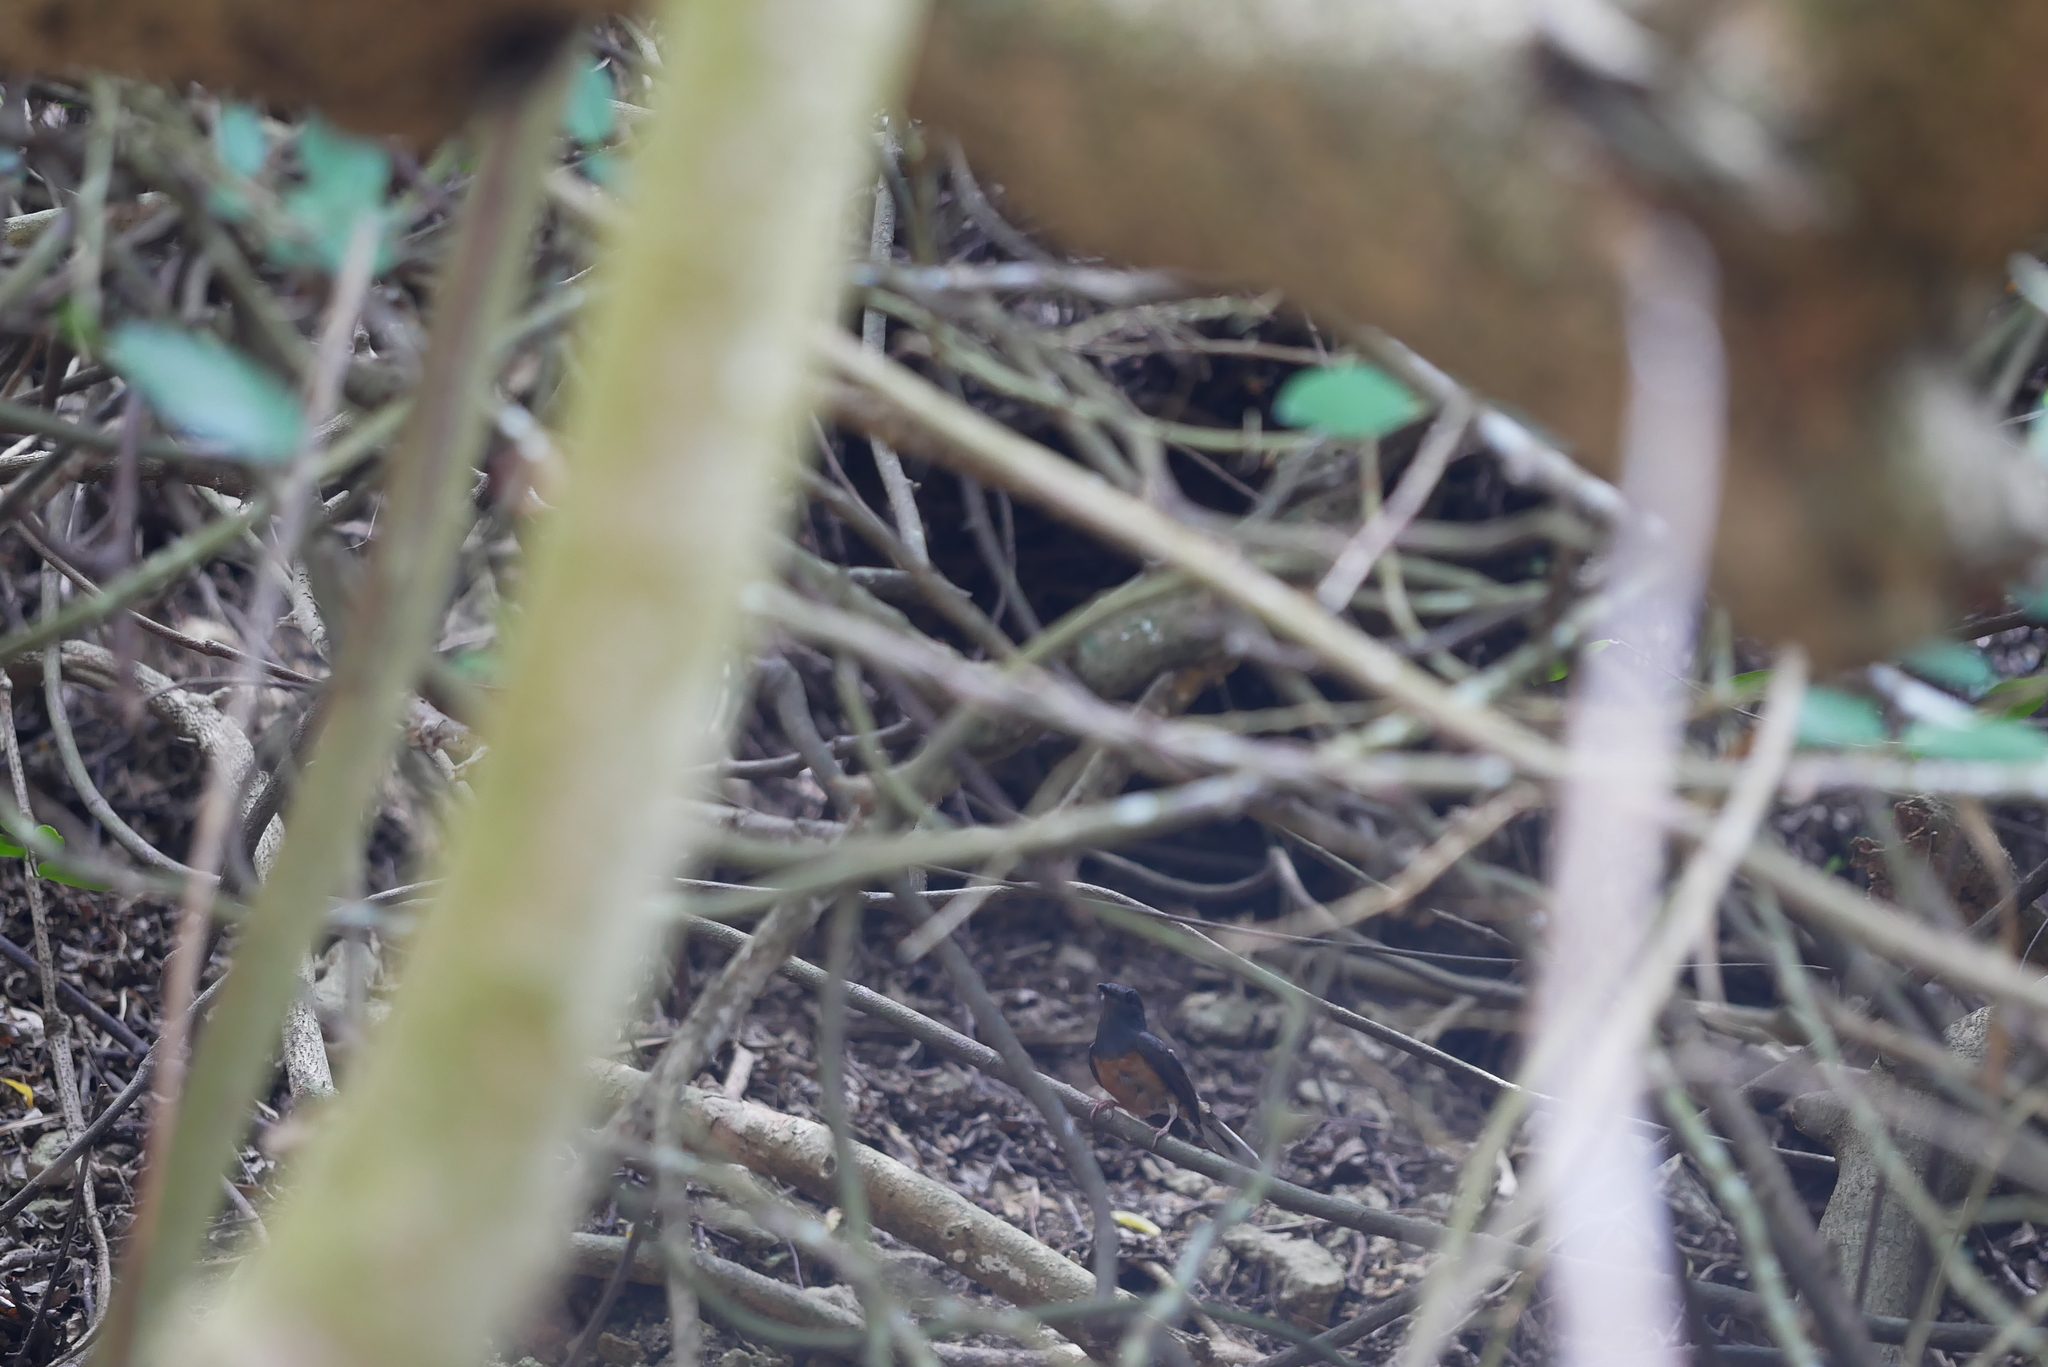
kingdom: Animalia
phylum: Chordata
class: Aves
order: Passeriformes
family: Muscicapidae
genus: Copsychus
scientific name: Copsychus malabaricus
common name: White-rumped shama
